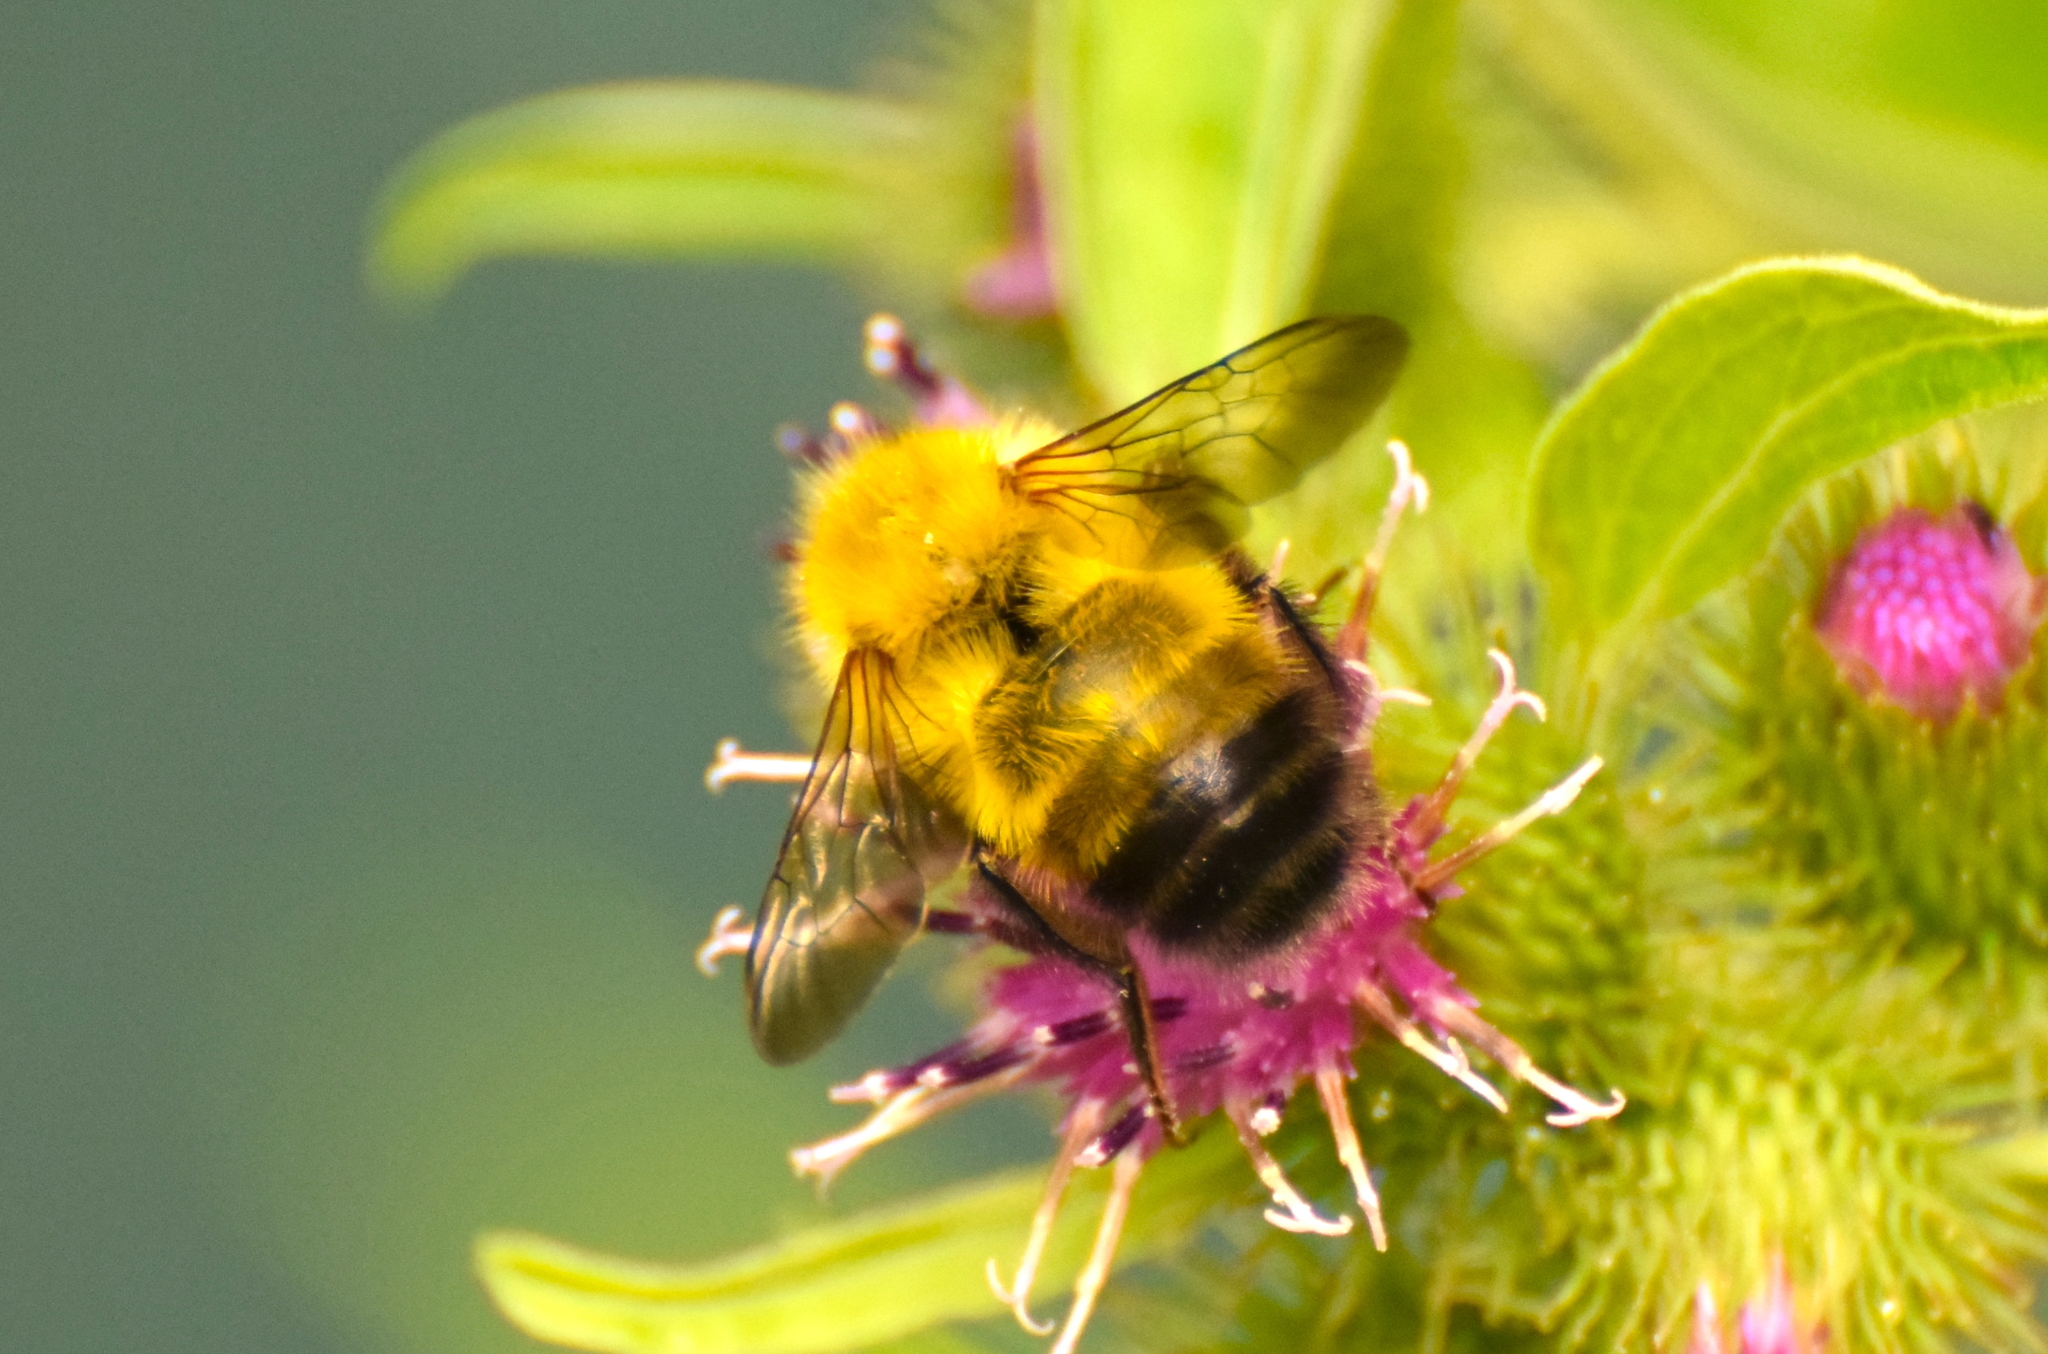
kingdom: Animalia
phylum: Arthropoda
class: Insecta
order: Hymenoptera
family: Apidae
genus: Bombus
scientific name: Bombus perplexus
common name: Confusing bumble bee
